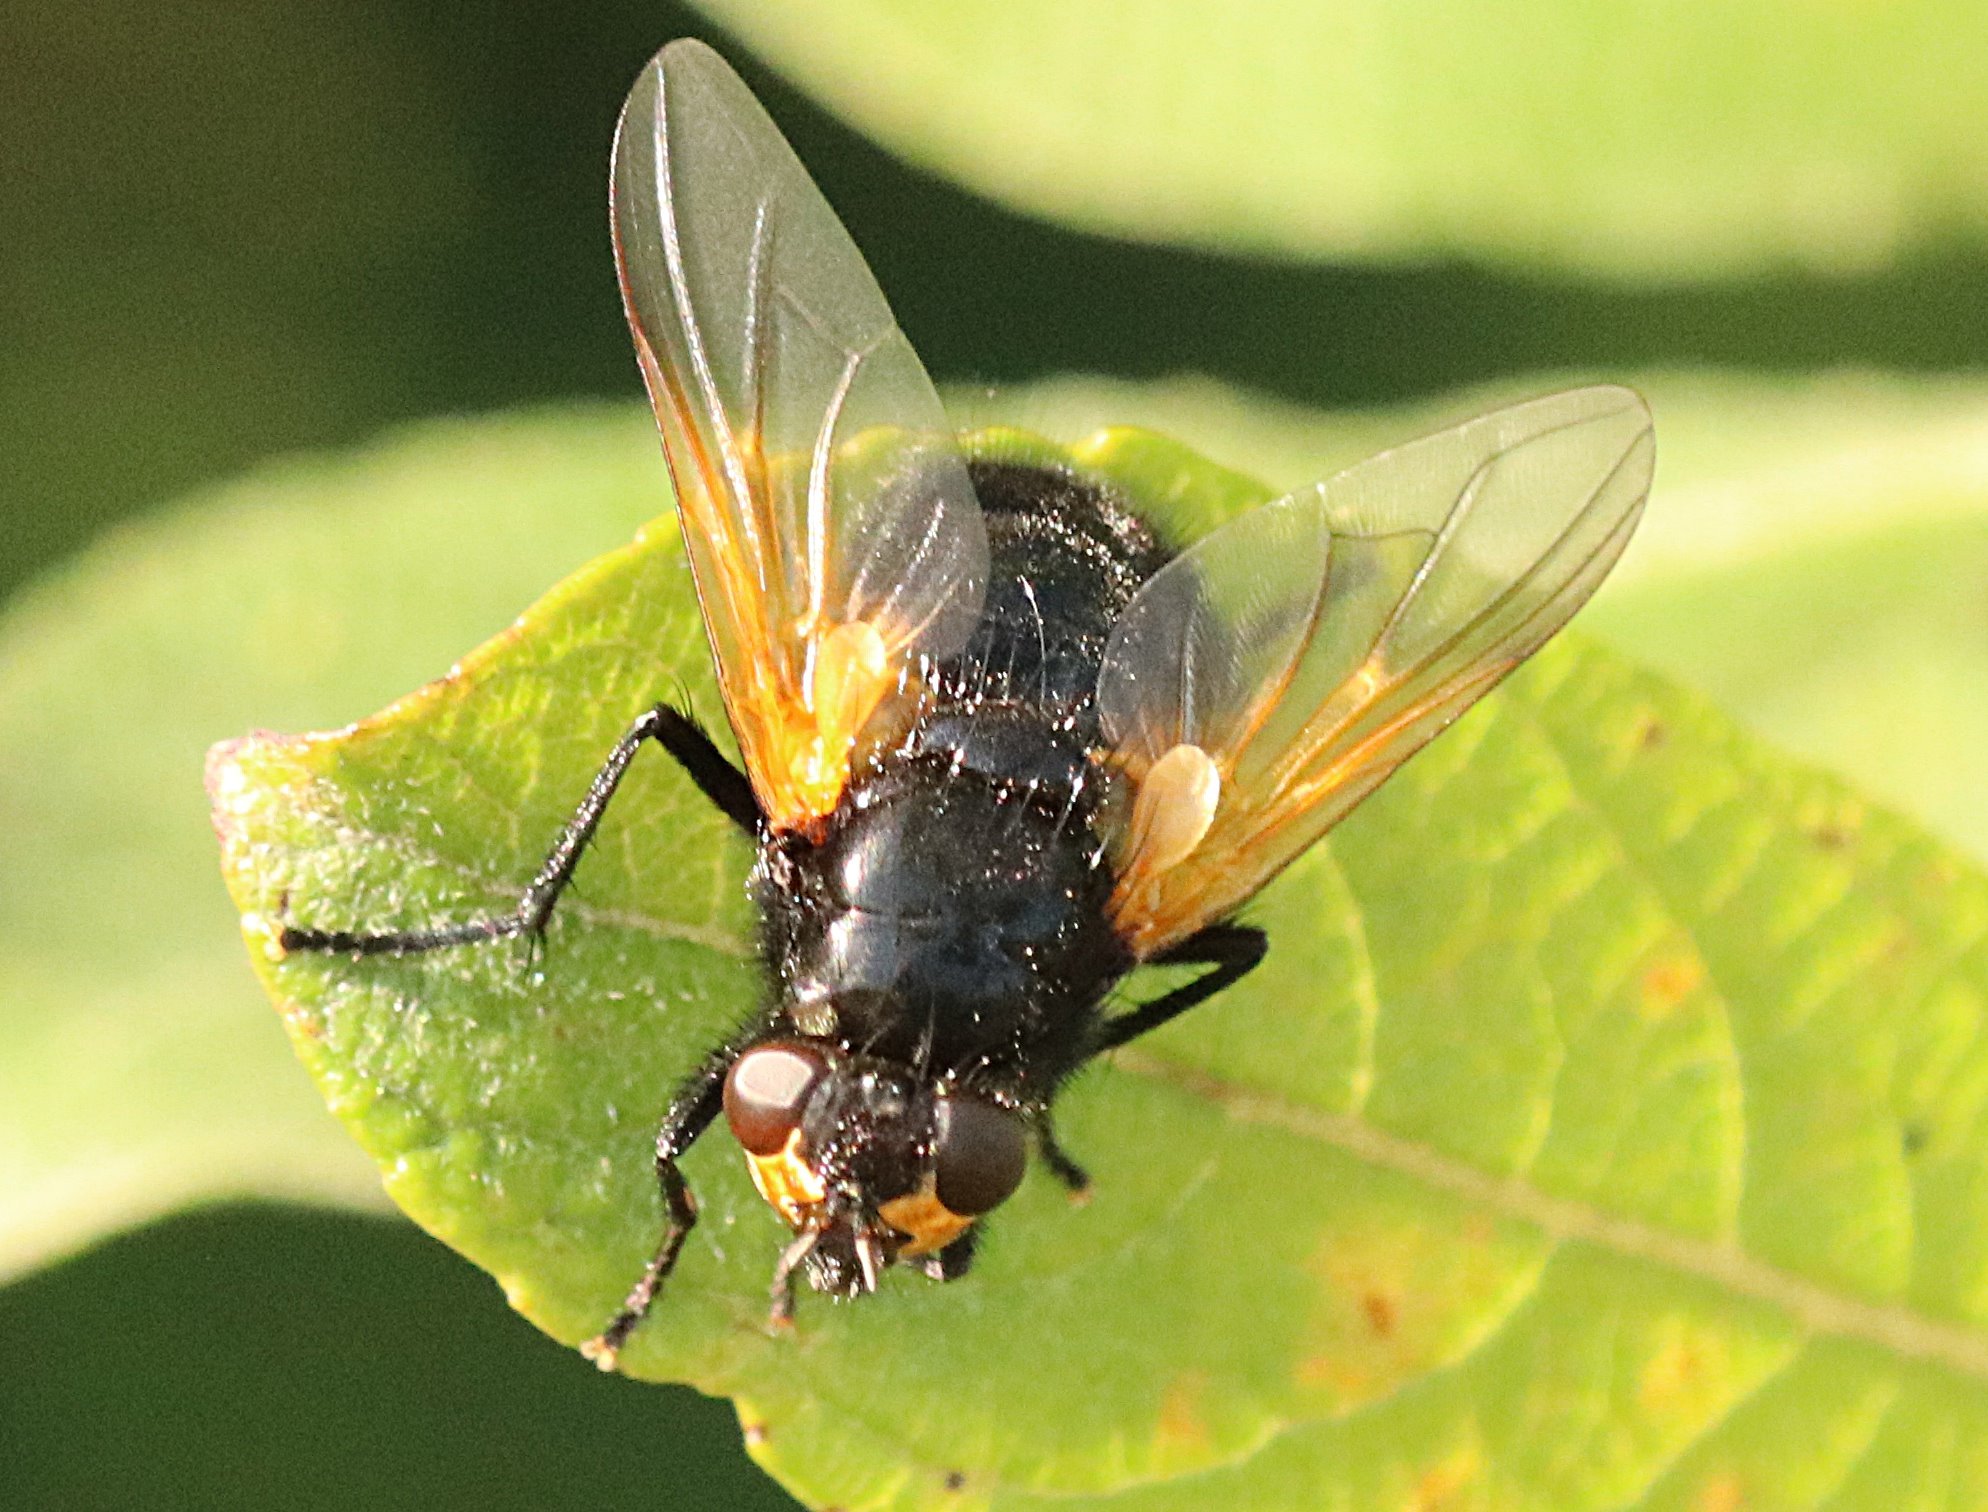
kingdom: Animalia
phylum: Arthropoda
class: Insecta
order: Diptera
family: Muscidae
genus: Mesembrina
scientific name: Mesembrina meridiana
